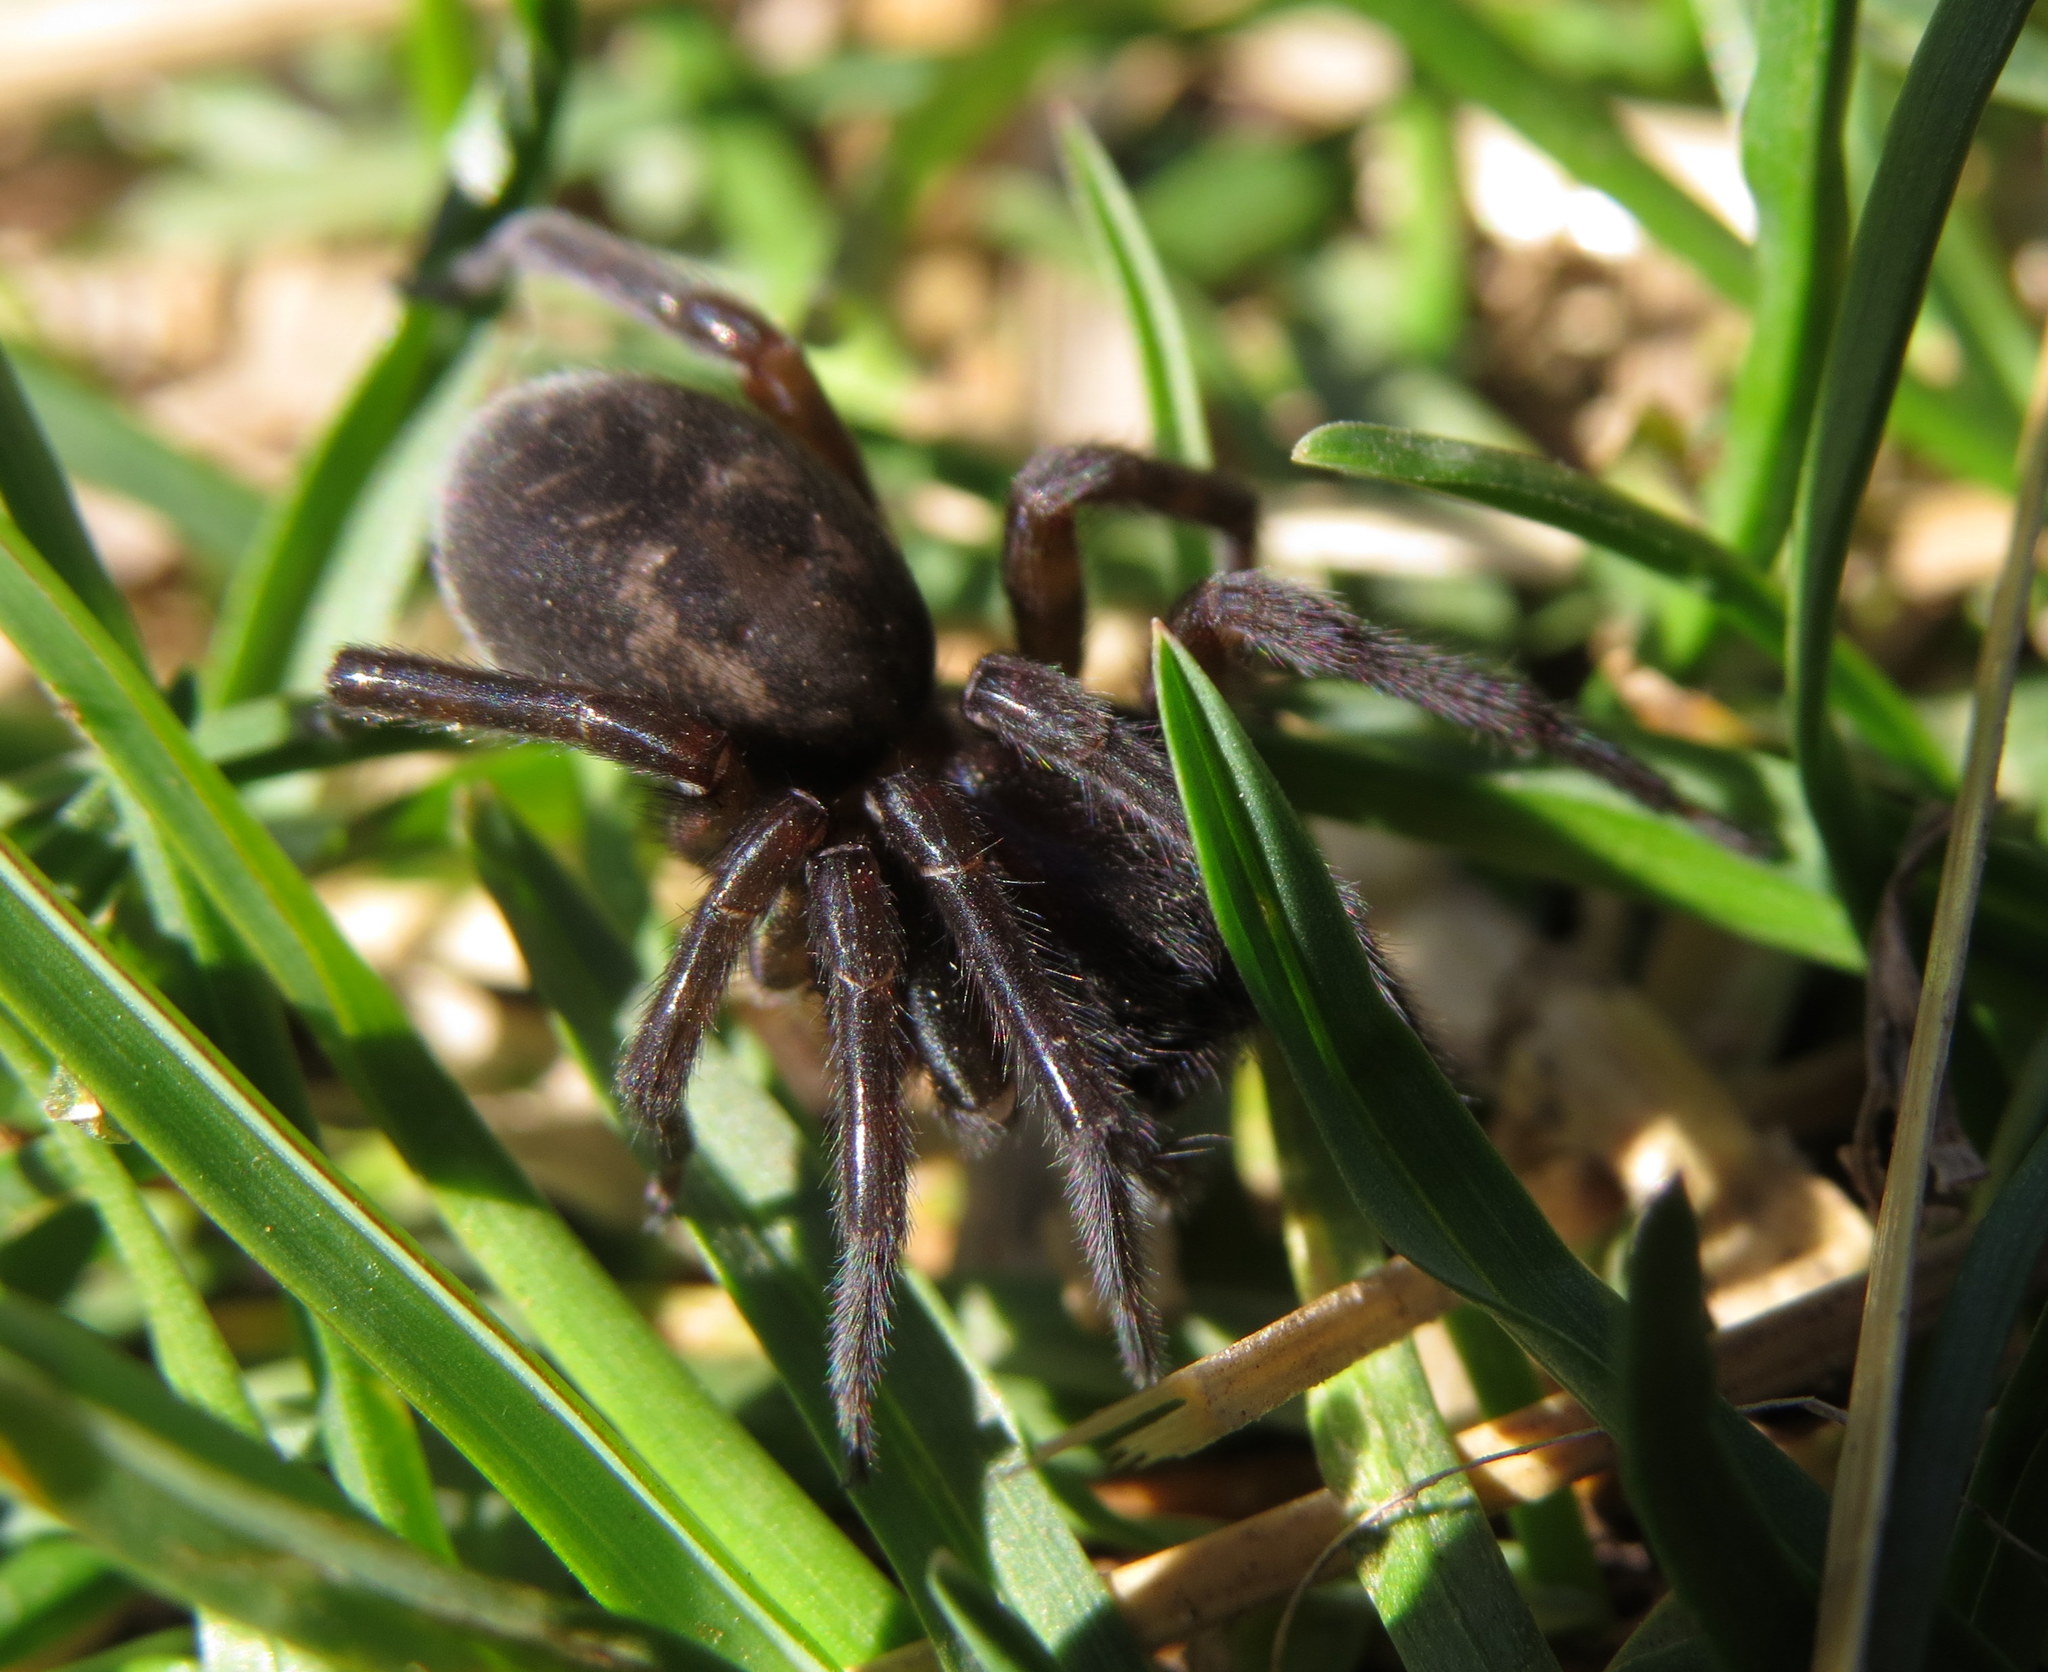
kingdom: Animalia
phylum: Arthropoda
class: Arachnida
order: Araneae
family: Amaurobiidae
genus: Amaurobius
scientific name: Amaurobius ferox
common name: Black laceweaver
